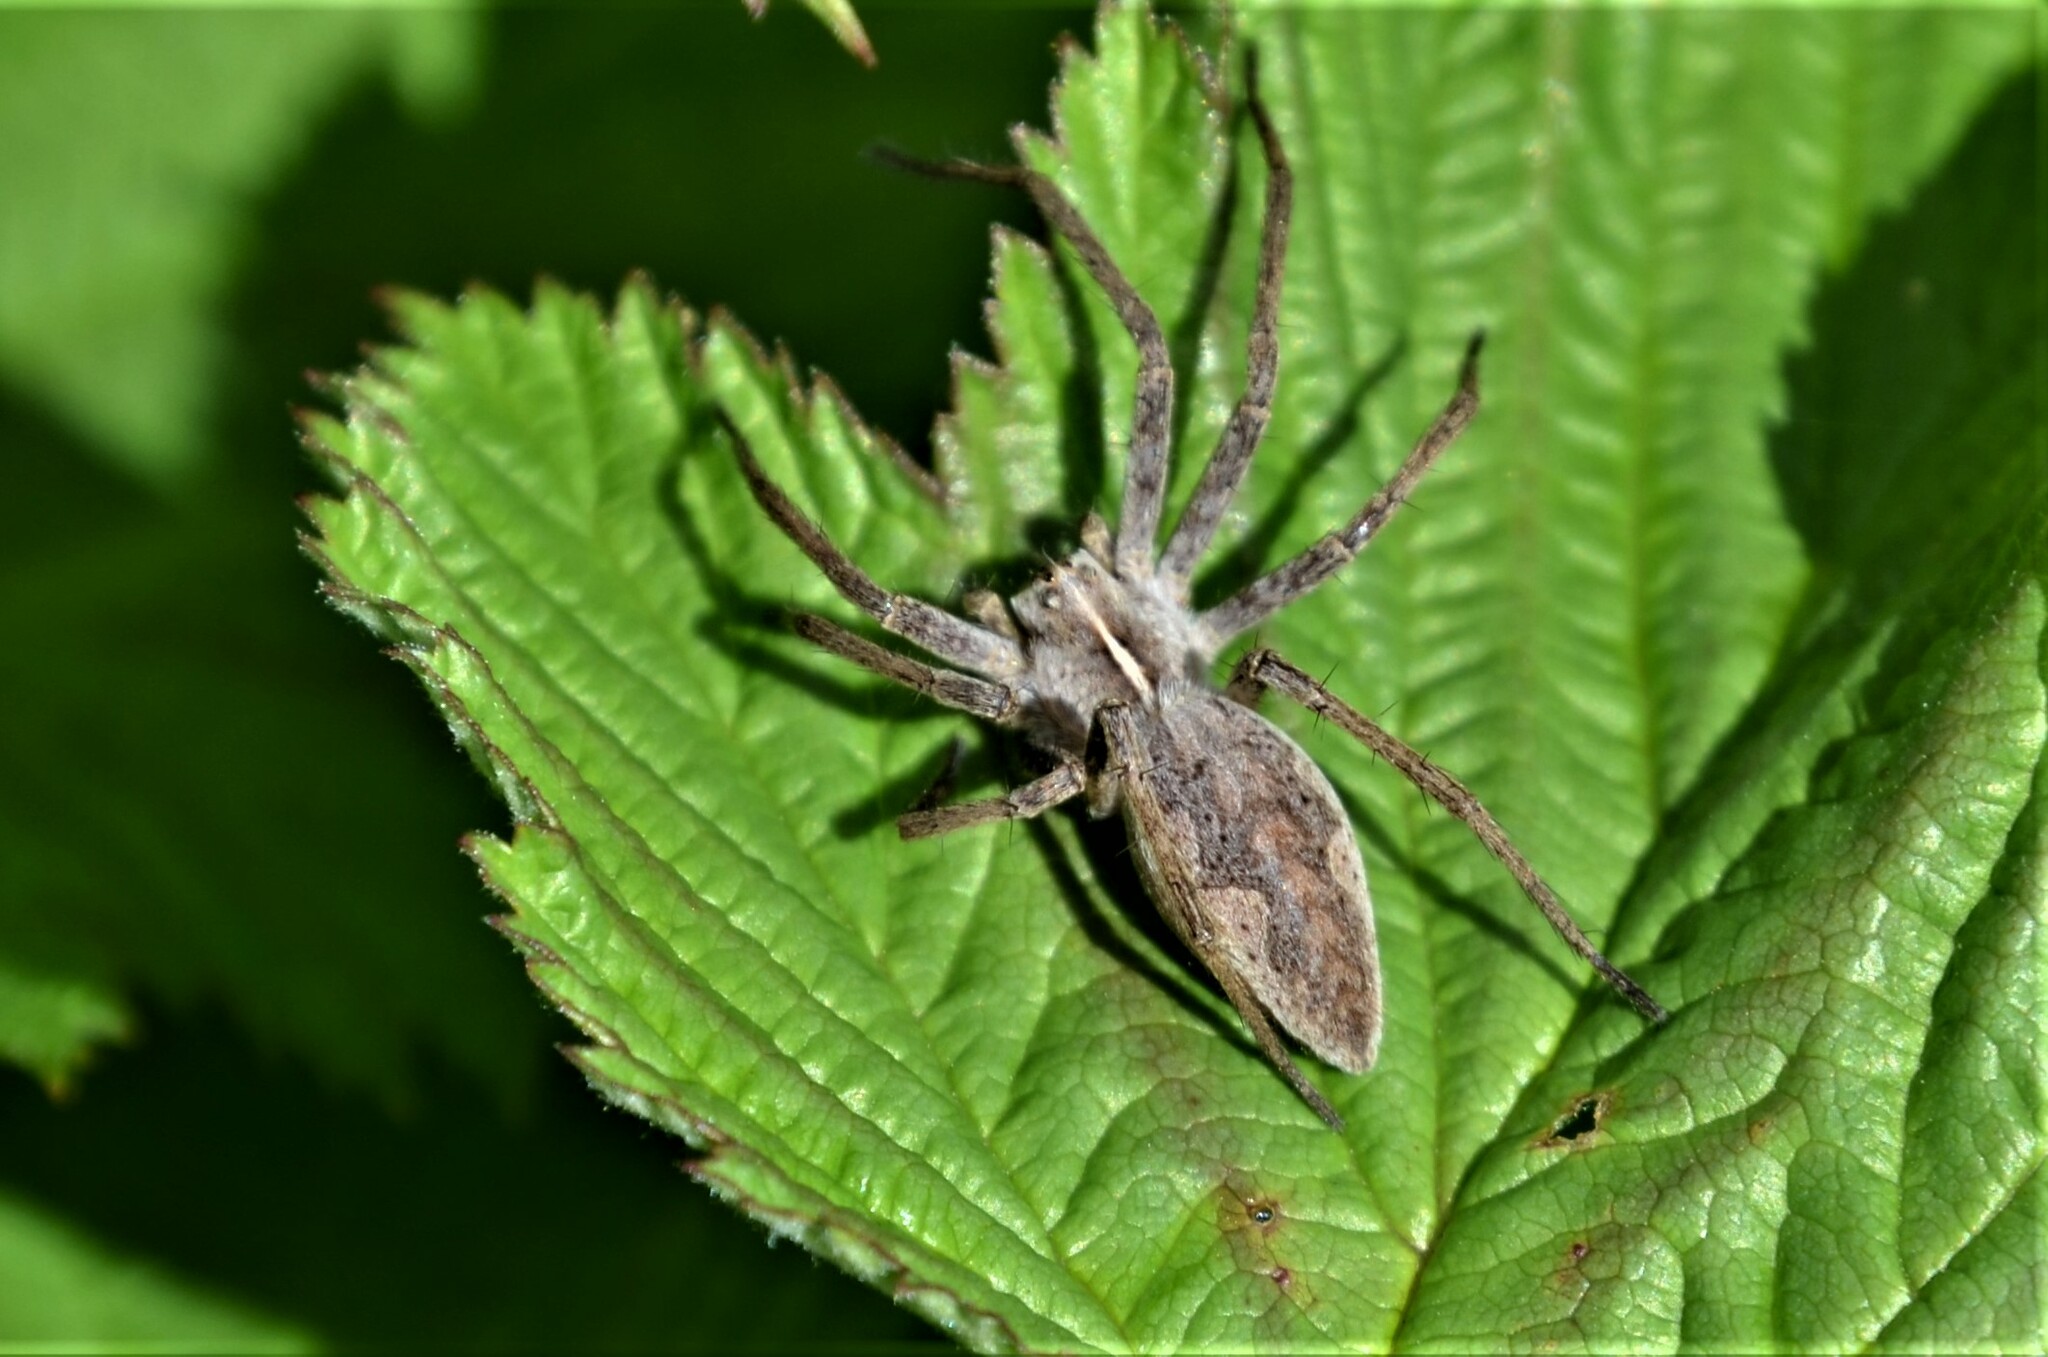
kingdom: Animalia
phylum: Arthropoda
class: Arachnida
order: Araneae
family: Pisauridae
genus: Pisaura
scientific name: Pisaura mirabilis
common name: Tent spider
